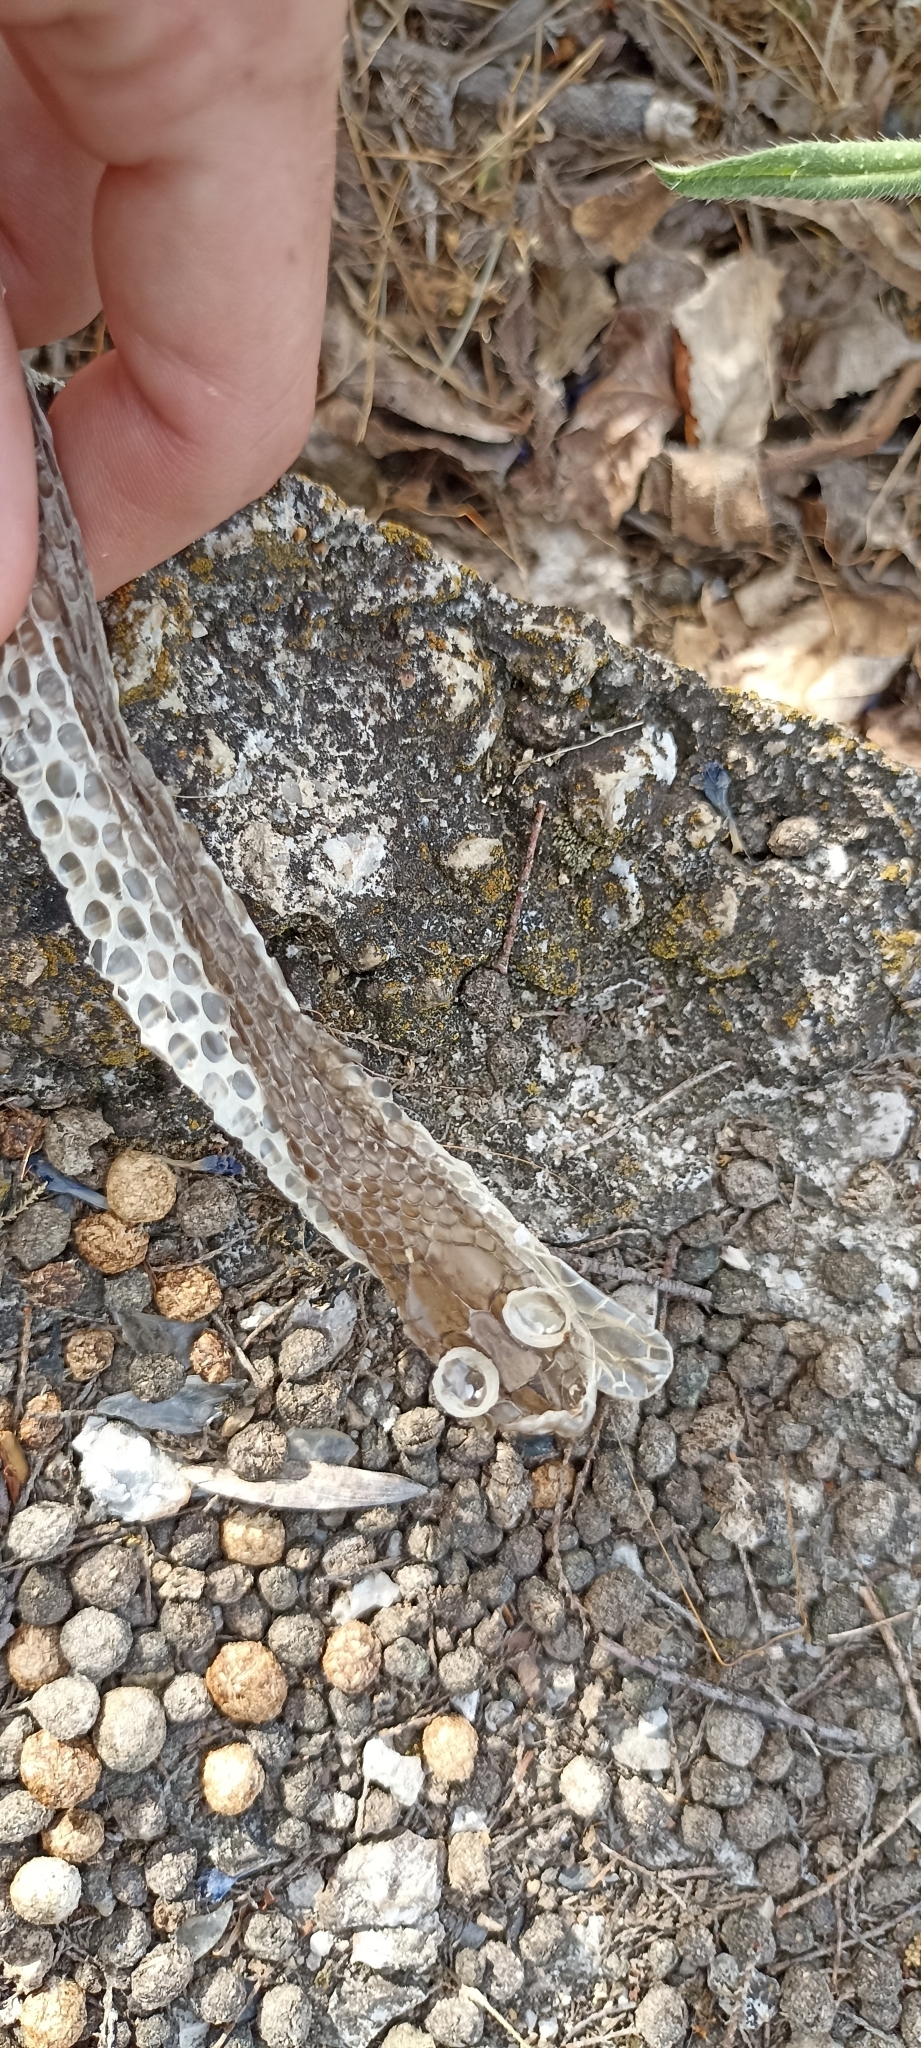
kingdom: Animalia
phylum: Chordata
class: Squamata
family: Psammophiidae
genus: Malpolon
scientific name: Malpolon monspessulanus
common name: Montpellier snake
